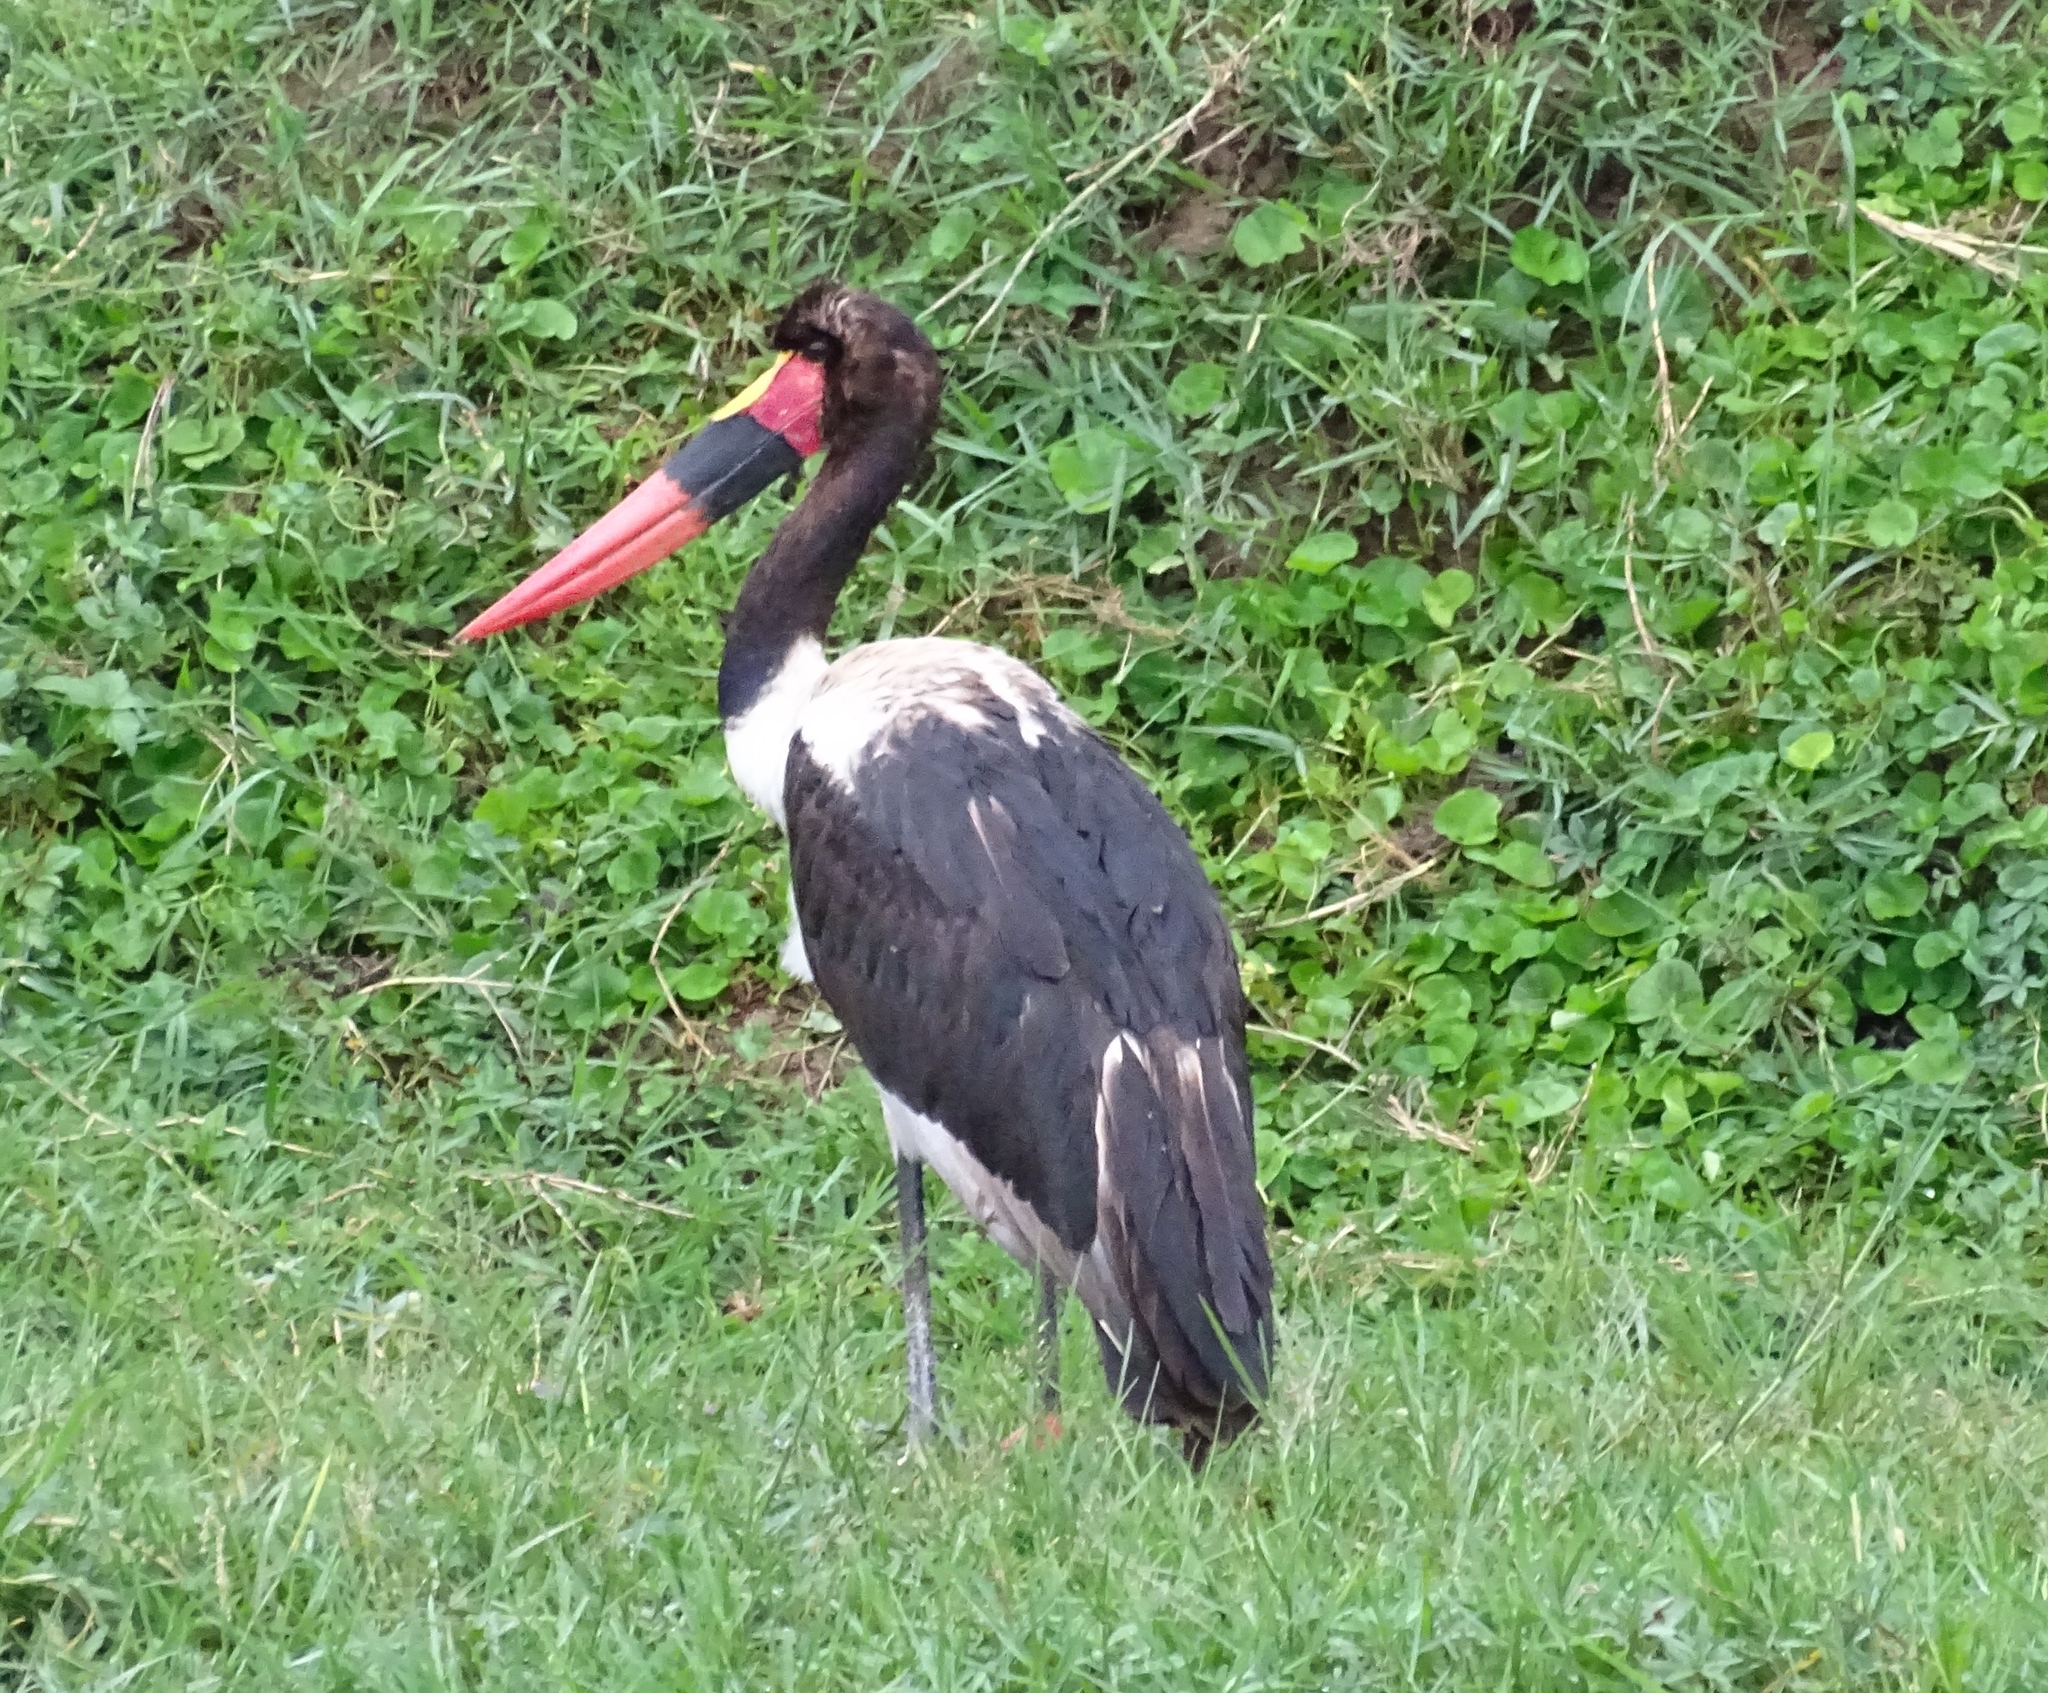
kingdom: Animalia
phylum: Chordata
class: Aves
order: Ciconiiformes
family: Ciconiidae
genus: Ephippiorhynchus
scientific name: Ephippiorhynchus senegalensis
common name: Saddle-billed stork
